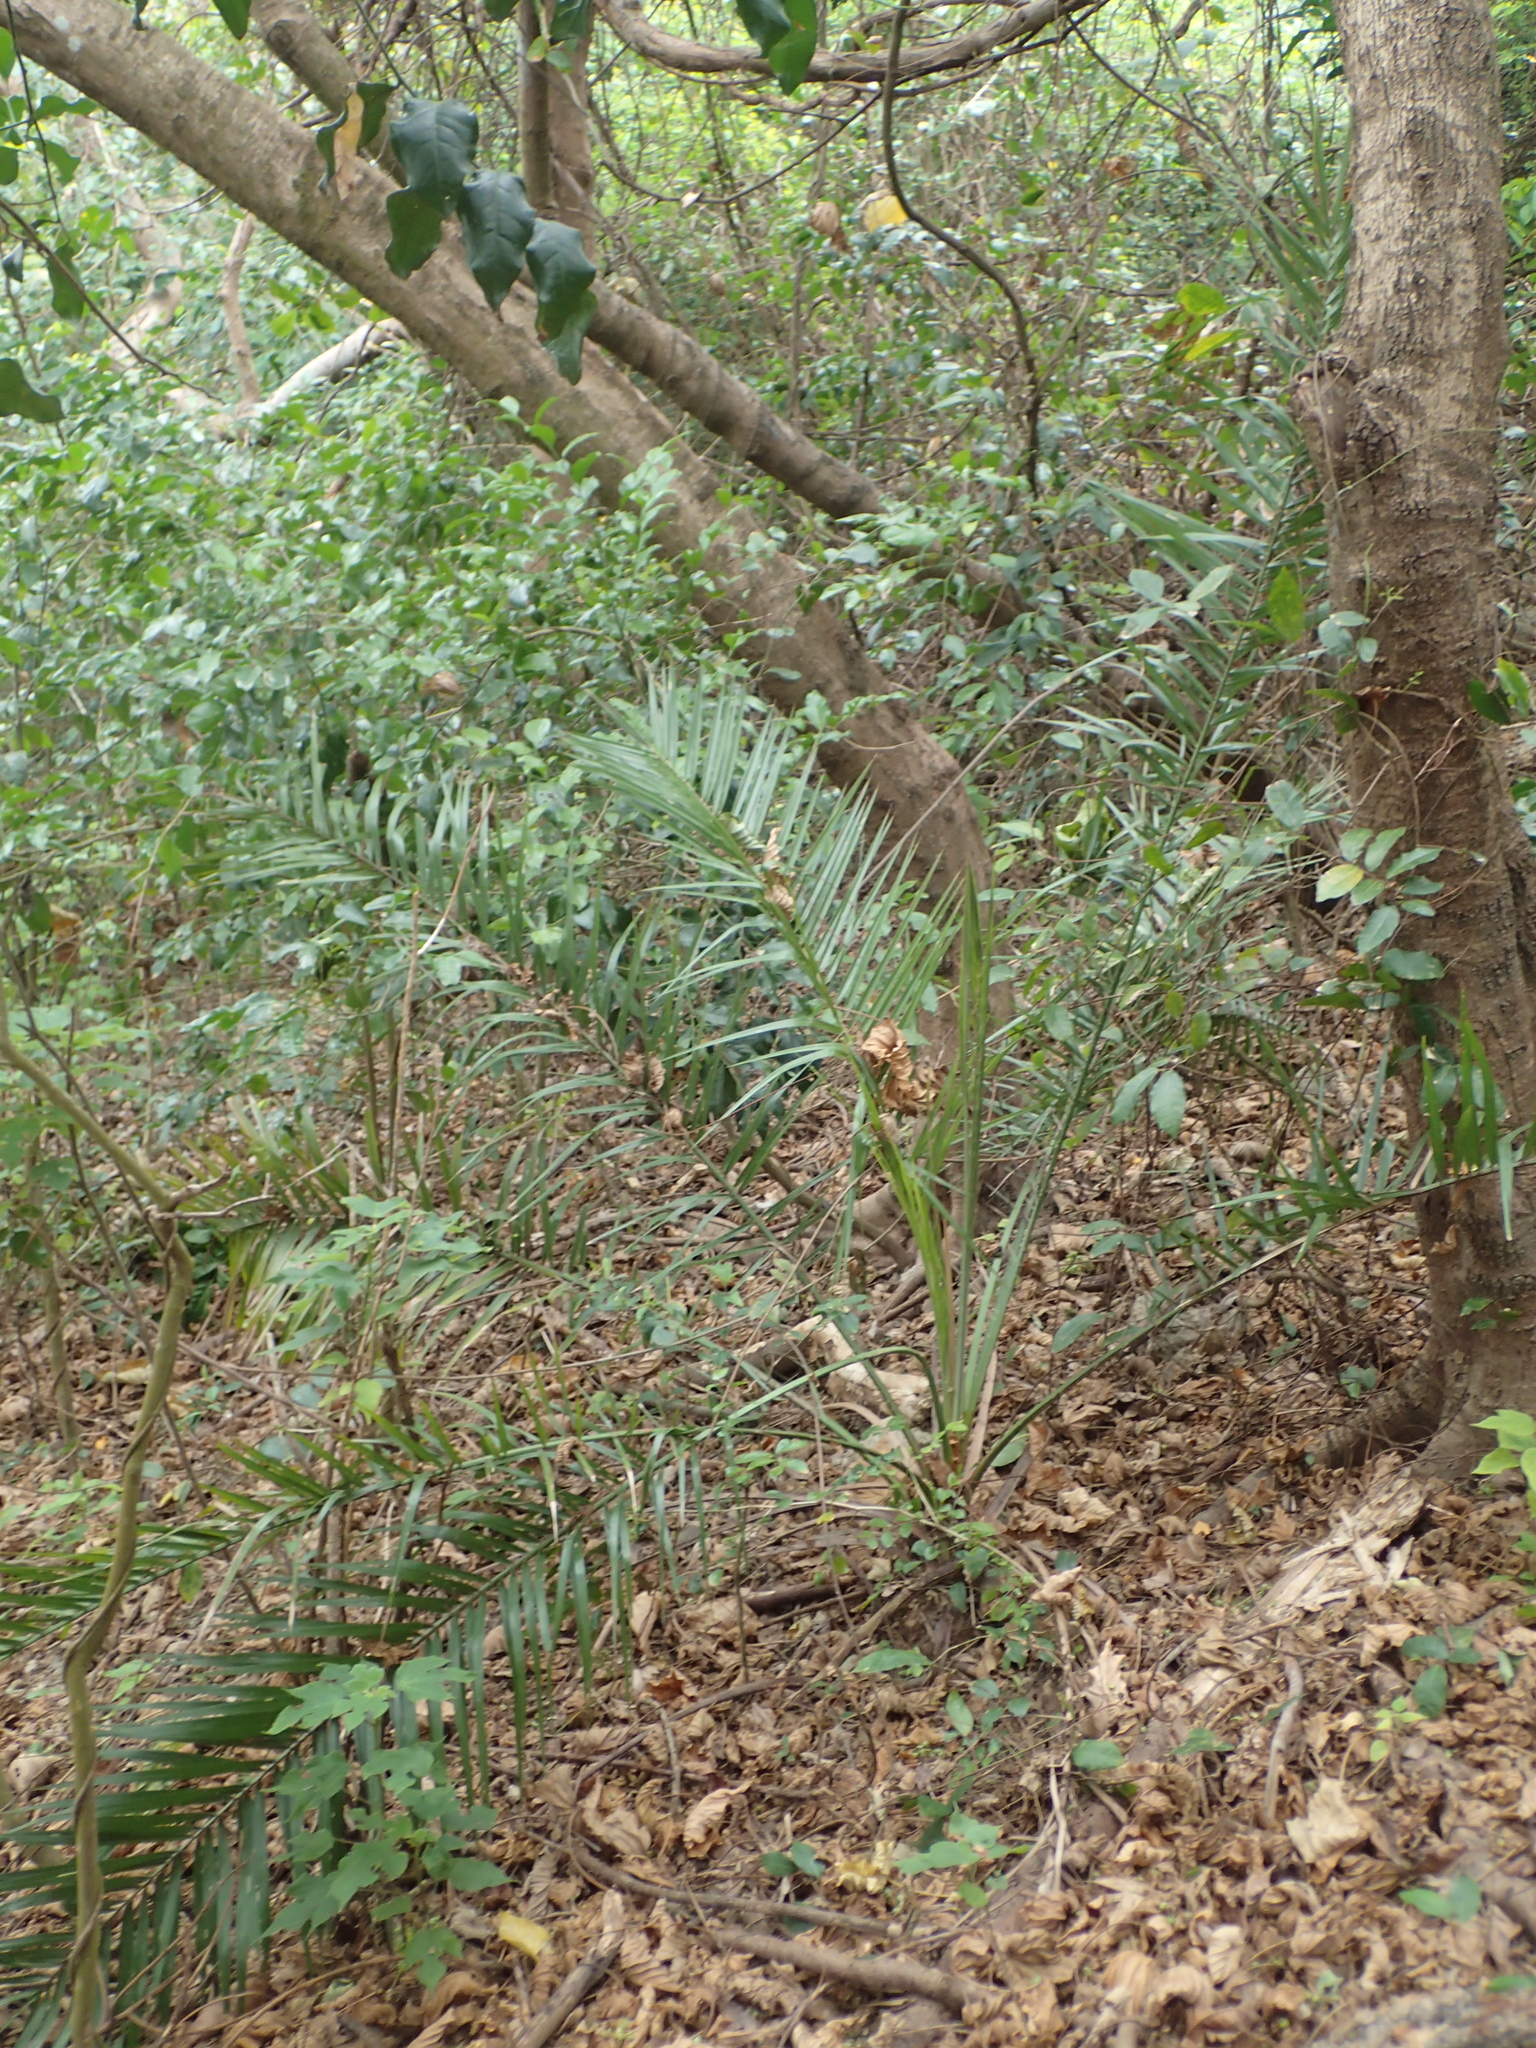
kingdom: Plantae
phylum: Tracheophyta
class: Liliopsida
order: Arecales
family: Arecaceae
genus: Phoenix
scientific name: Phoenix loureiroi
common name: Loureiro's palm
